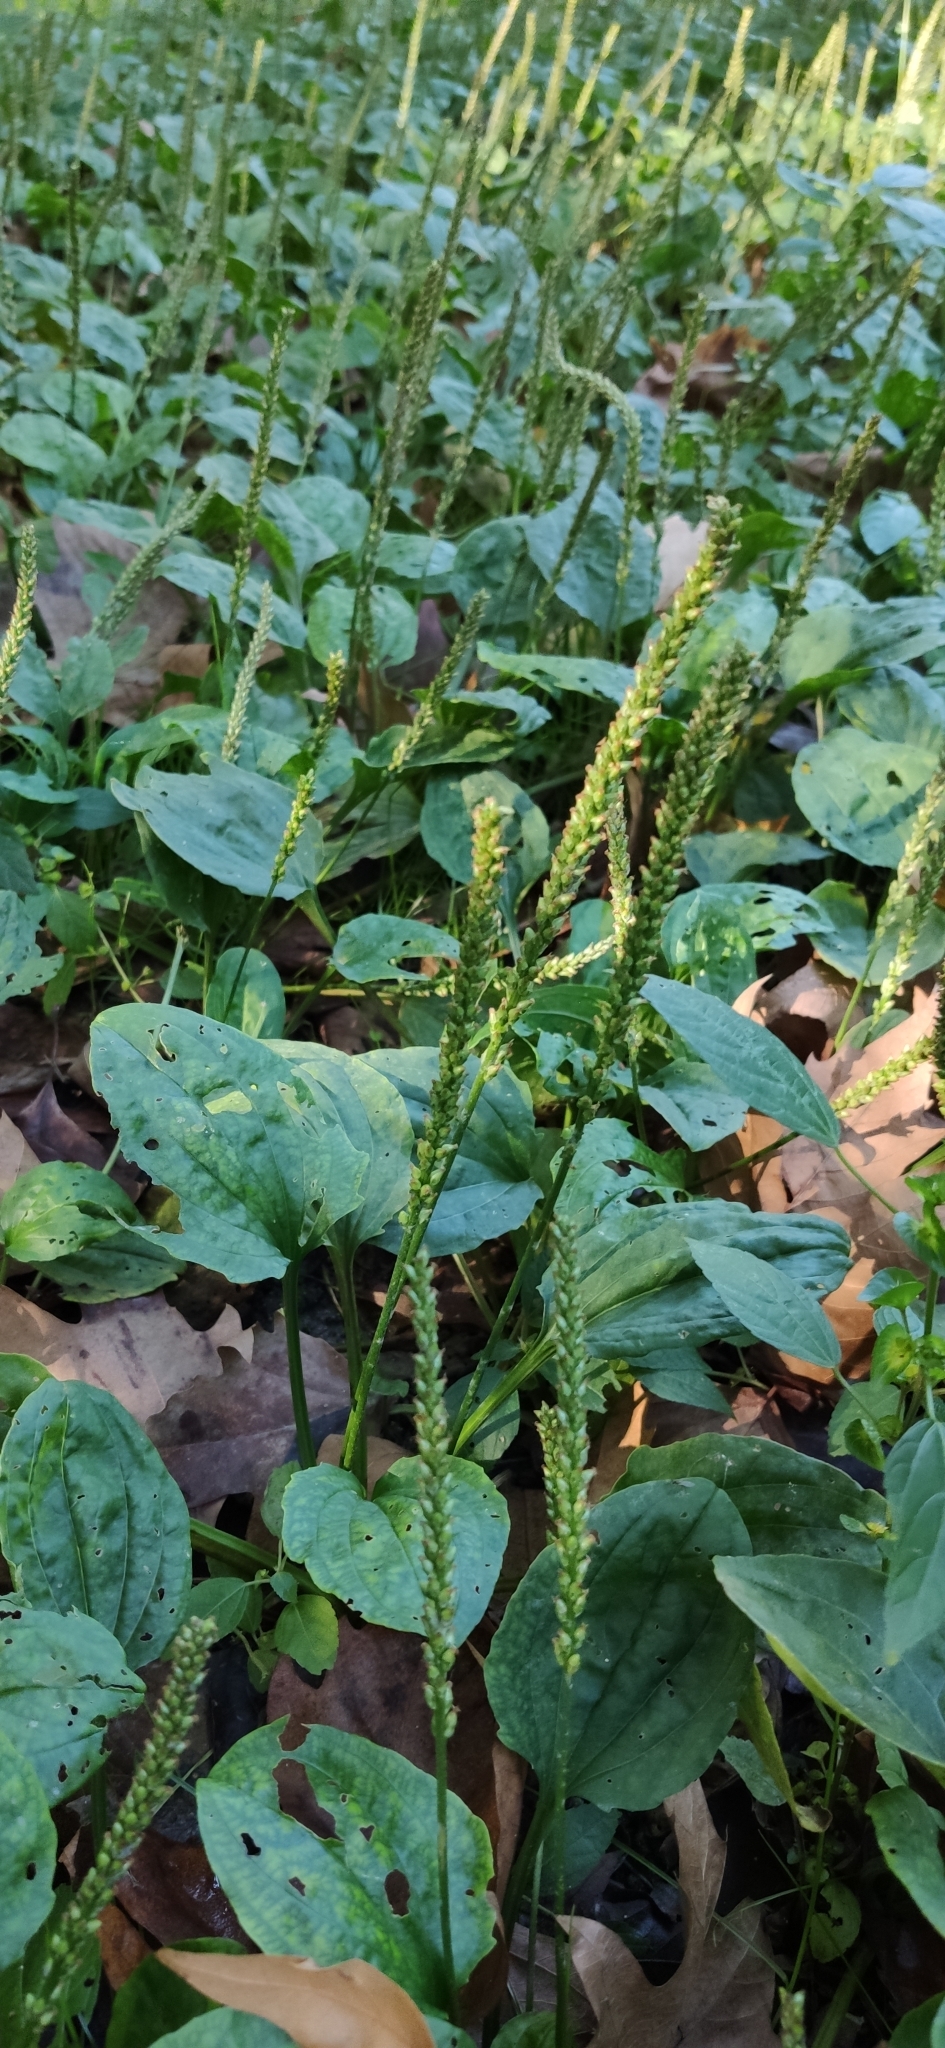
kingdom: Plantae
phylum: Tracheophyta
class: Magnoliopsida
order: Lamiales
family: Plantaginaceae
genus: Plantago
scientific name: Plantago major
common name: Common plantain
